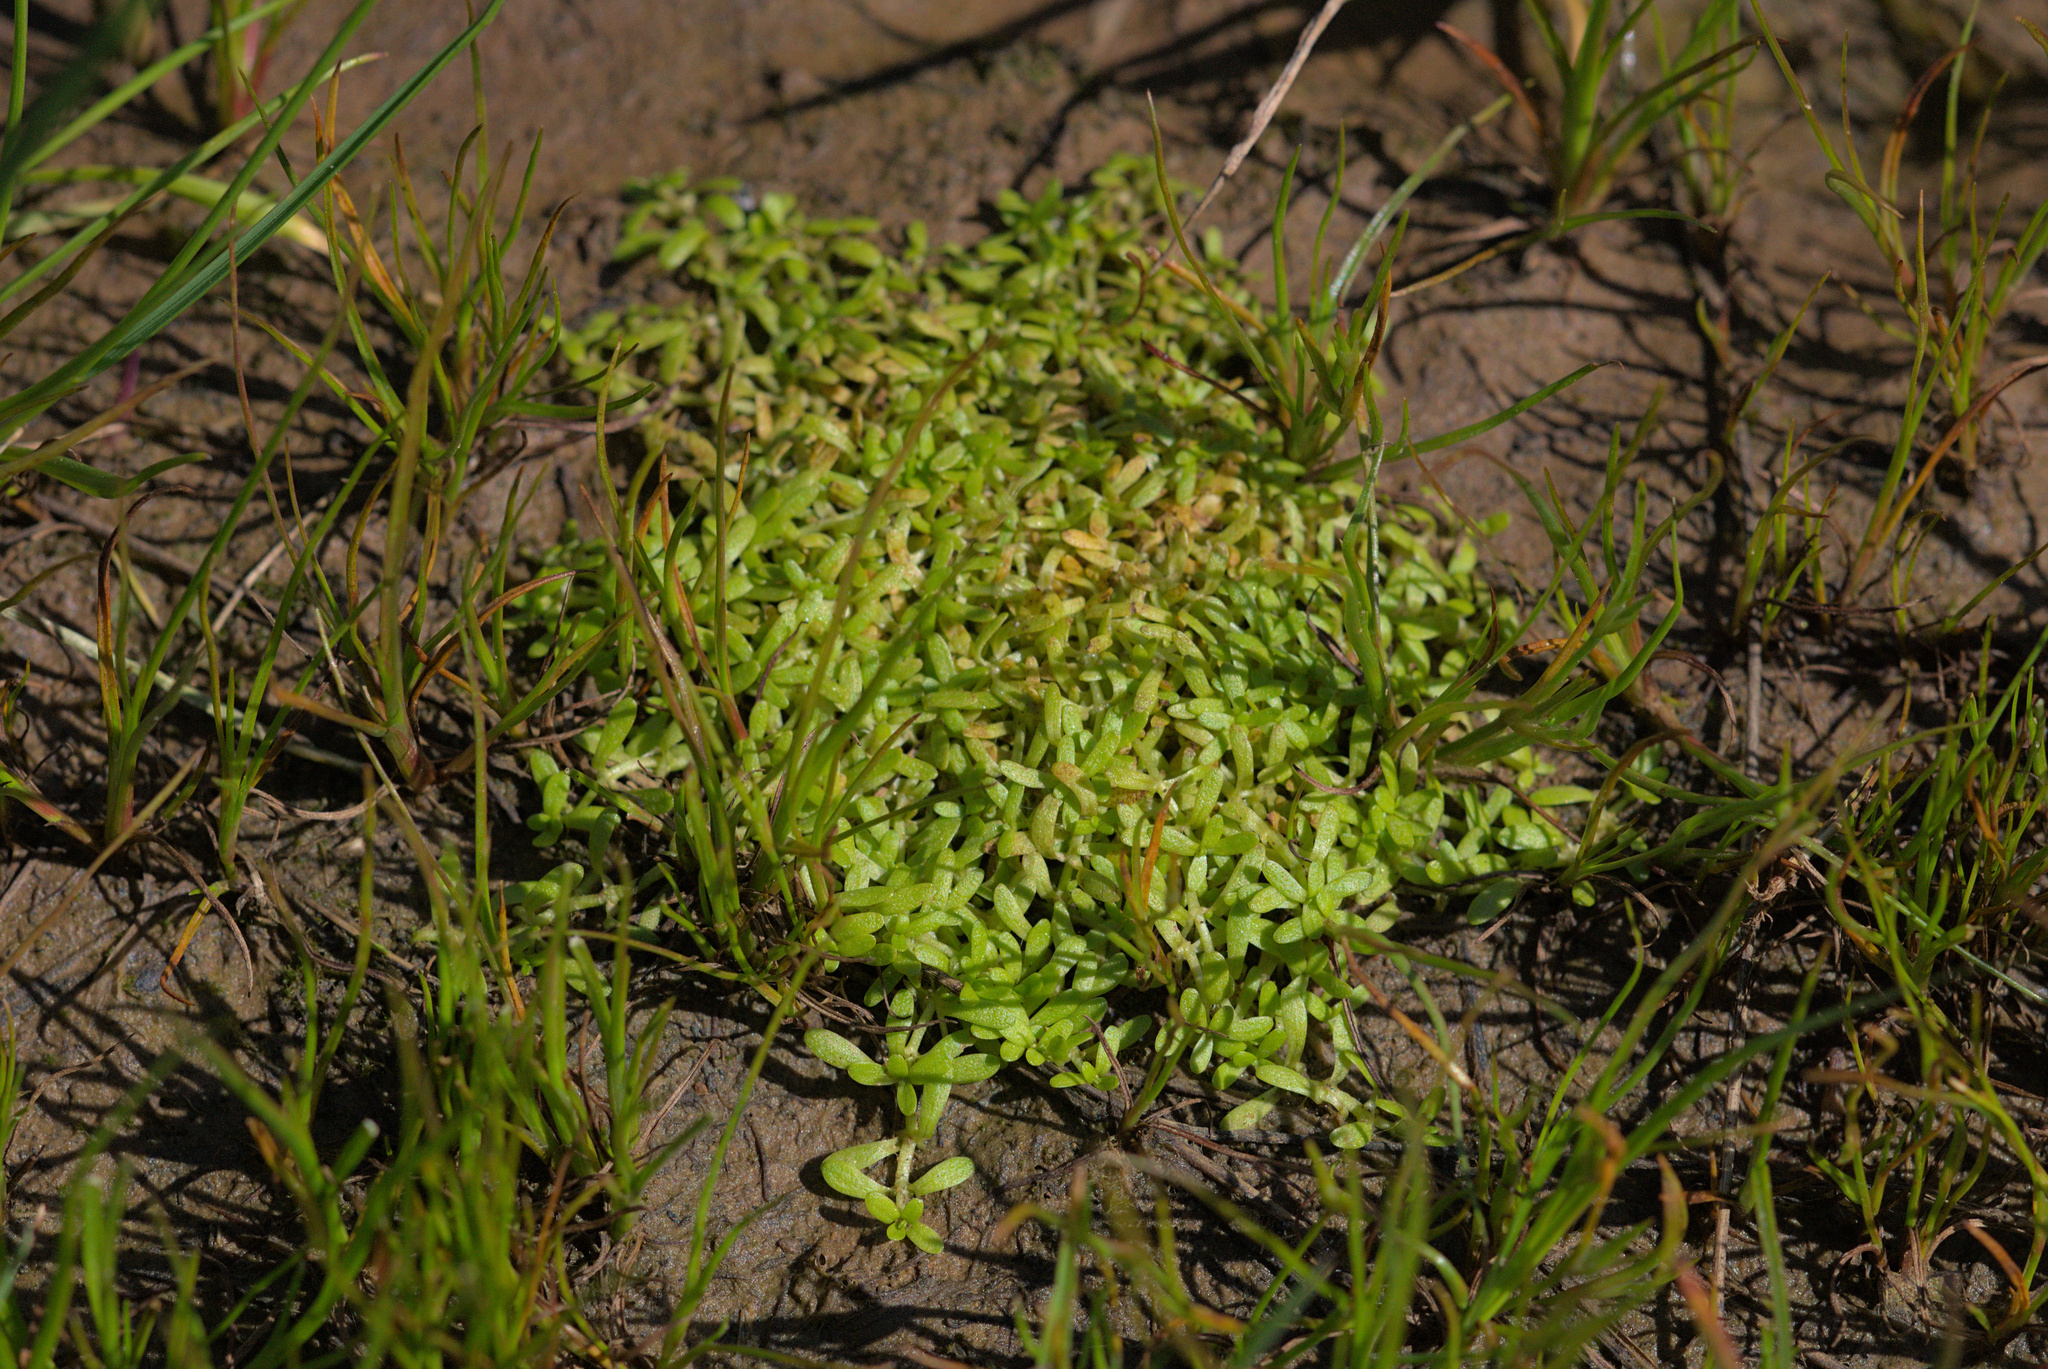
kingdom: Plantae
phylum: Tracheophyta
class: Magnoliopsida
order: Lamiales
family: Plantaginaceae
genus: Callitriche
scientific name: Callitriche marginata
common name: Winged water-starwort
